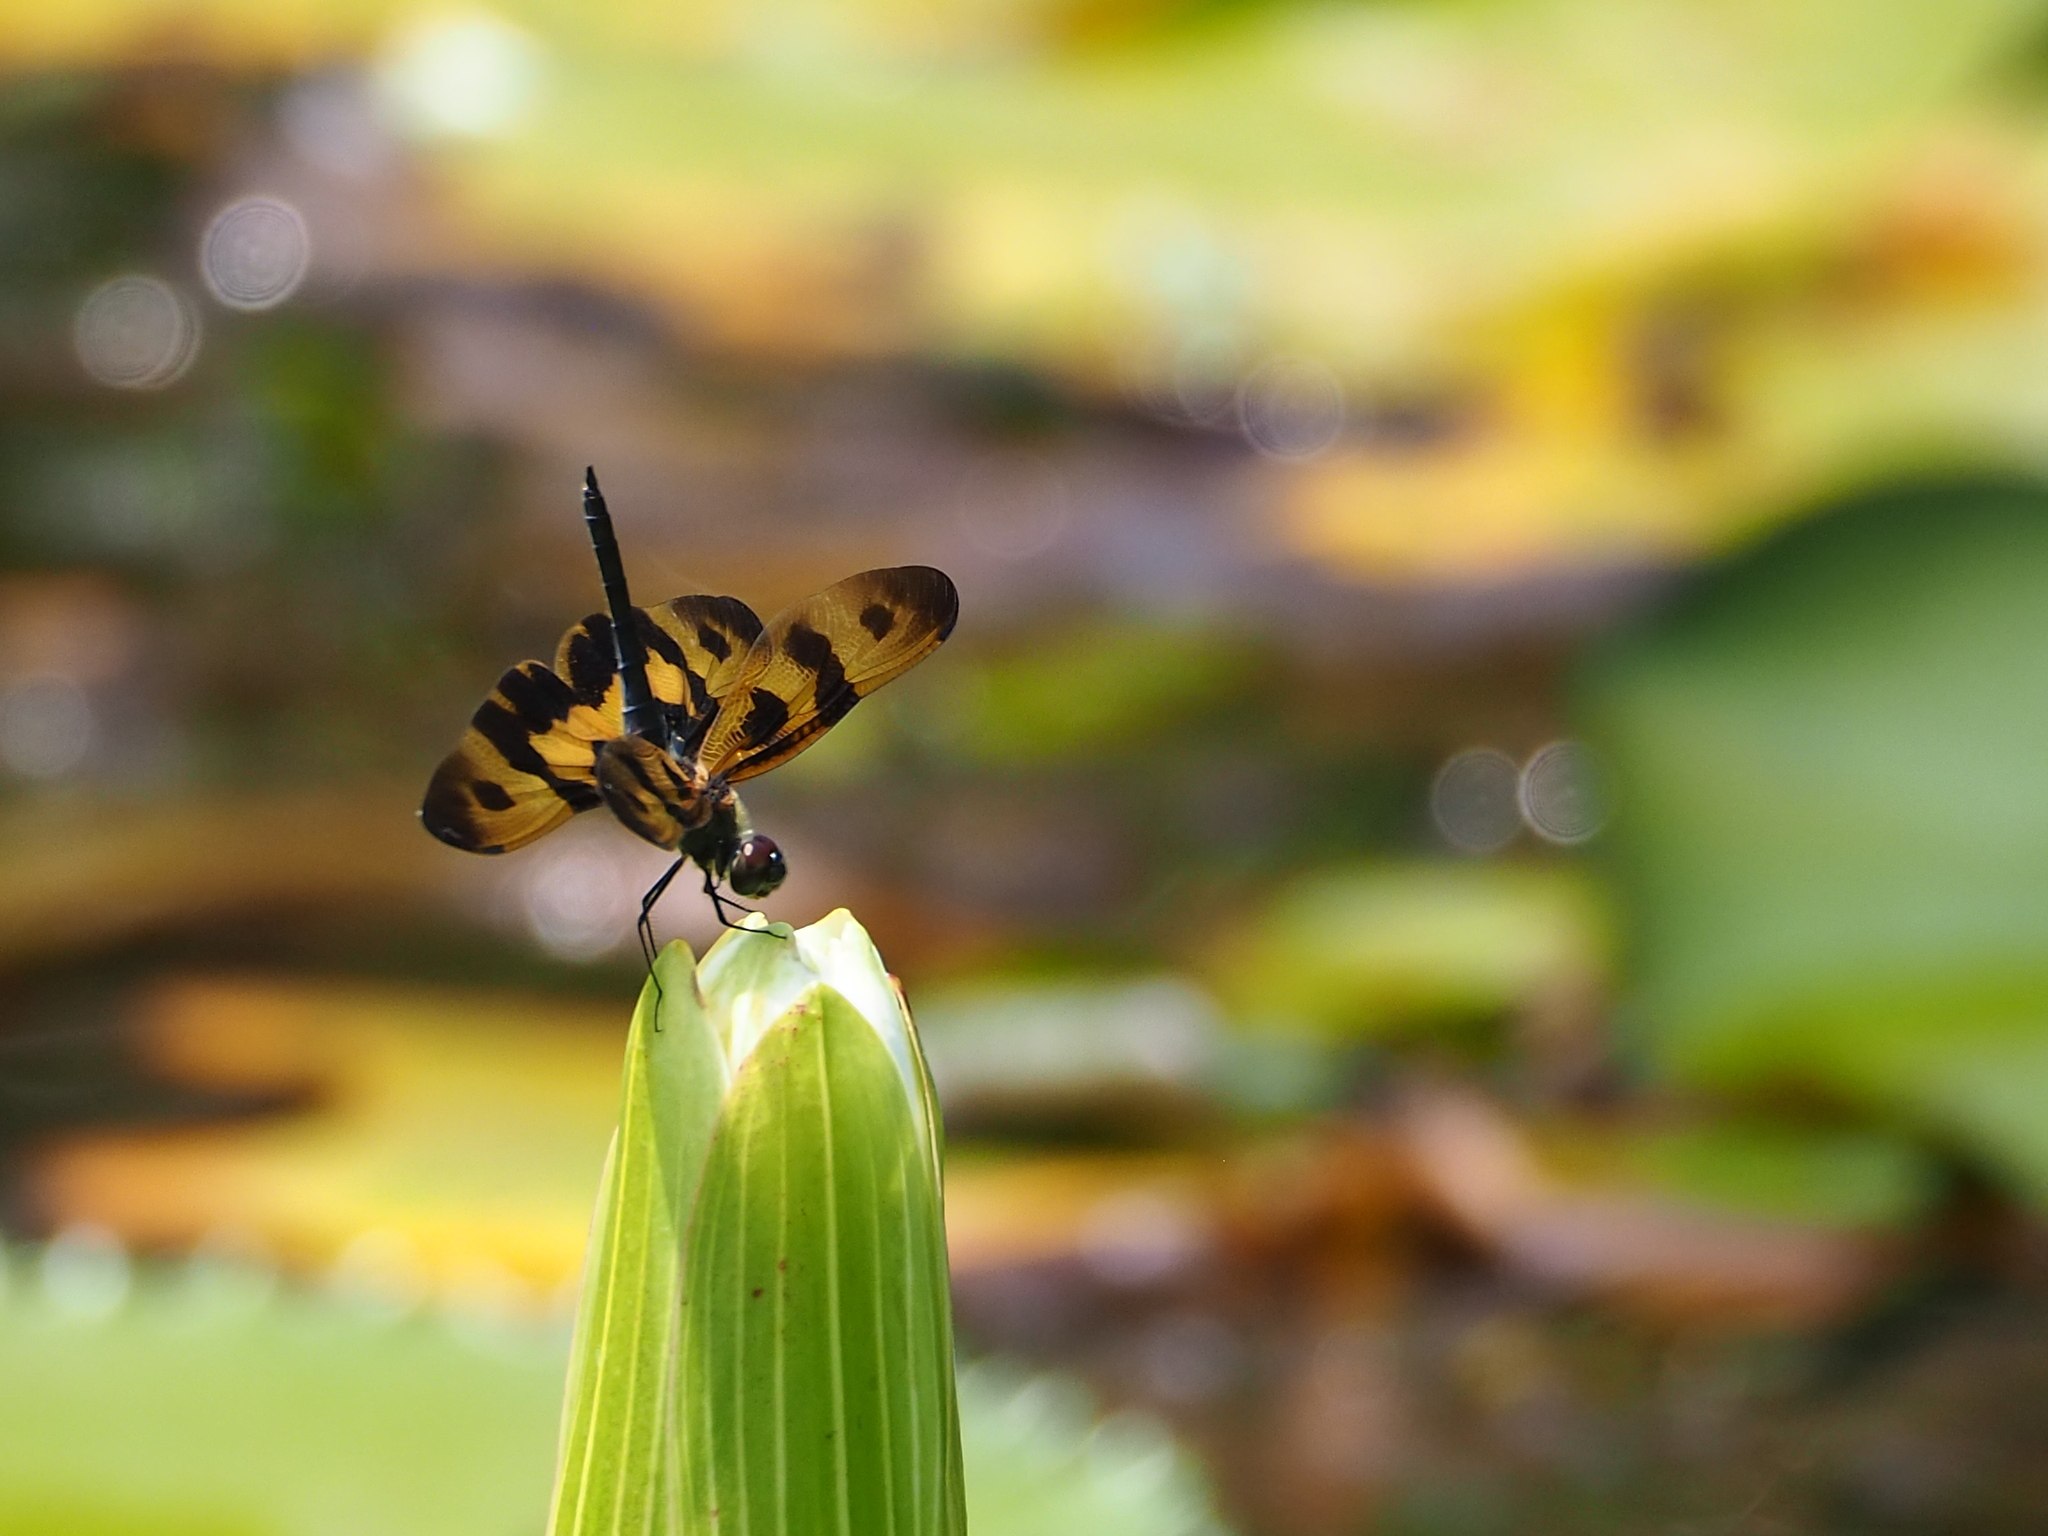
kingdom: Animalia
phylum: Arthropoda
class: Insecta
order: Odonata
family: Libellulidae
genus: Rhyothemis
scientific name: Rhyothemis variegata
